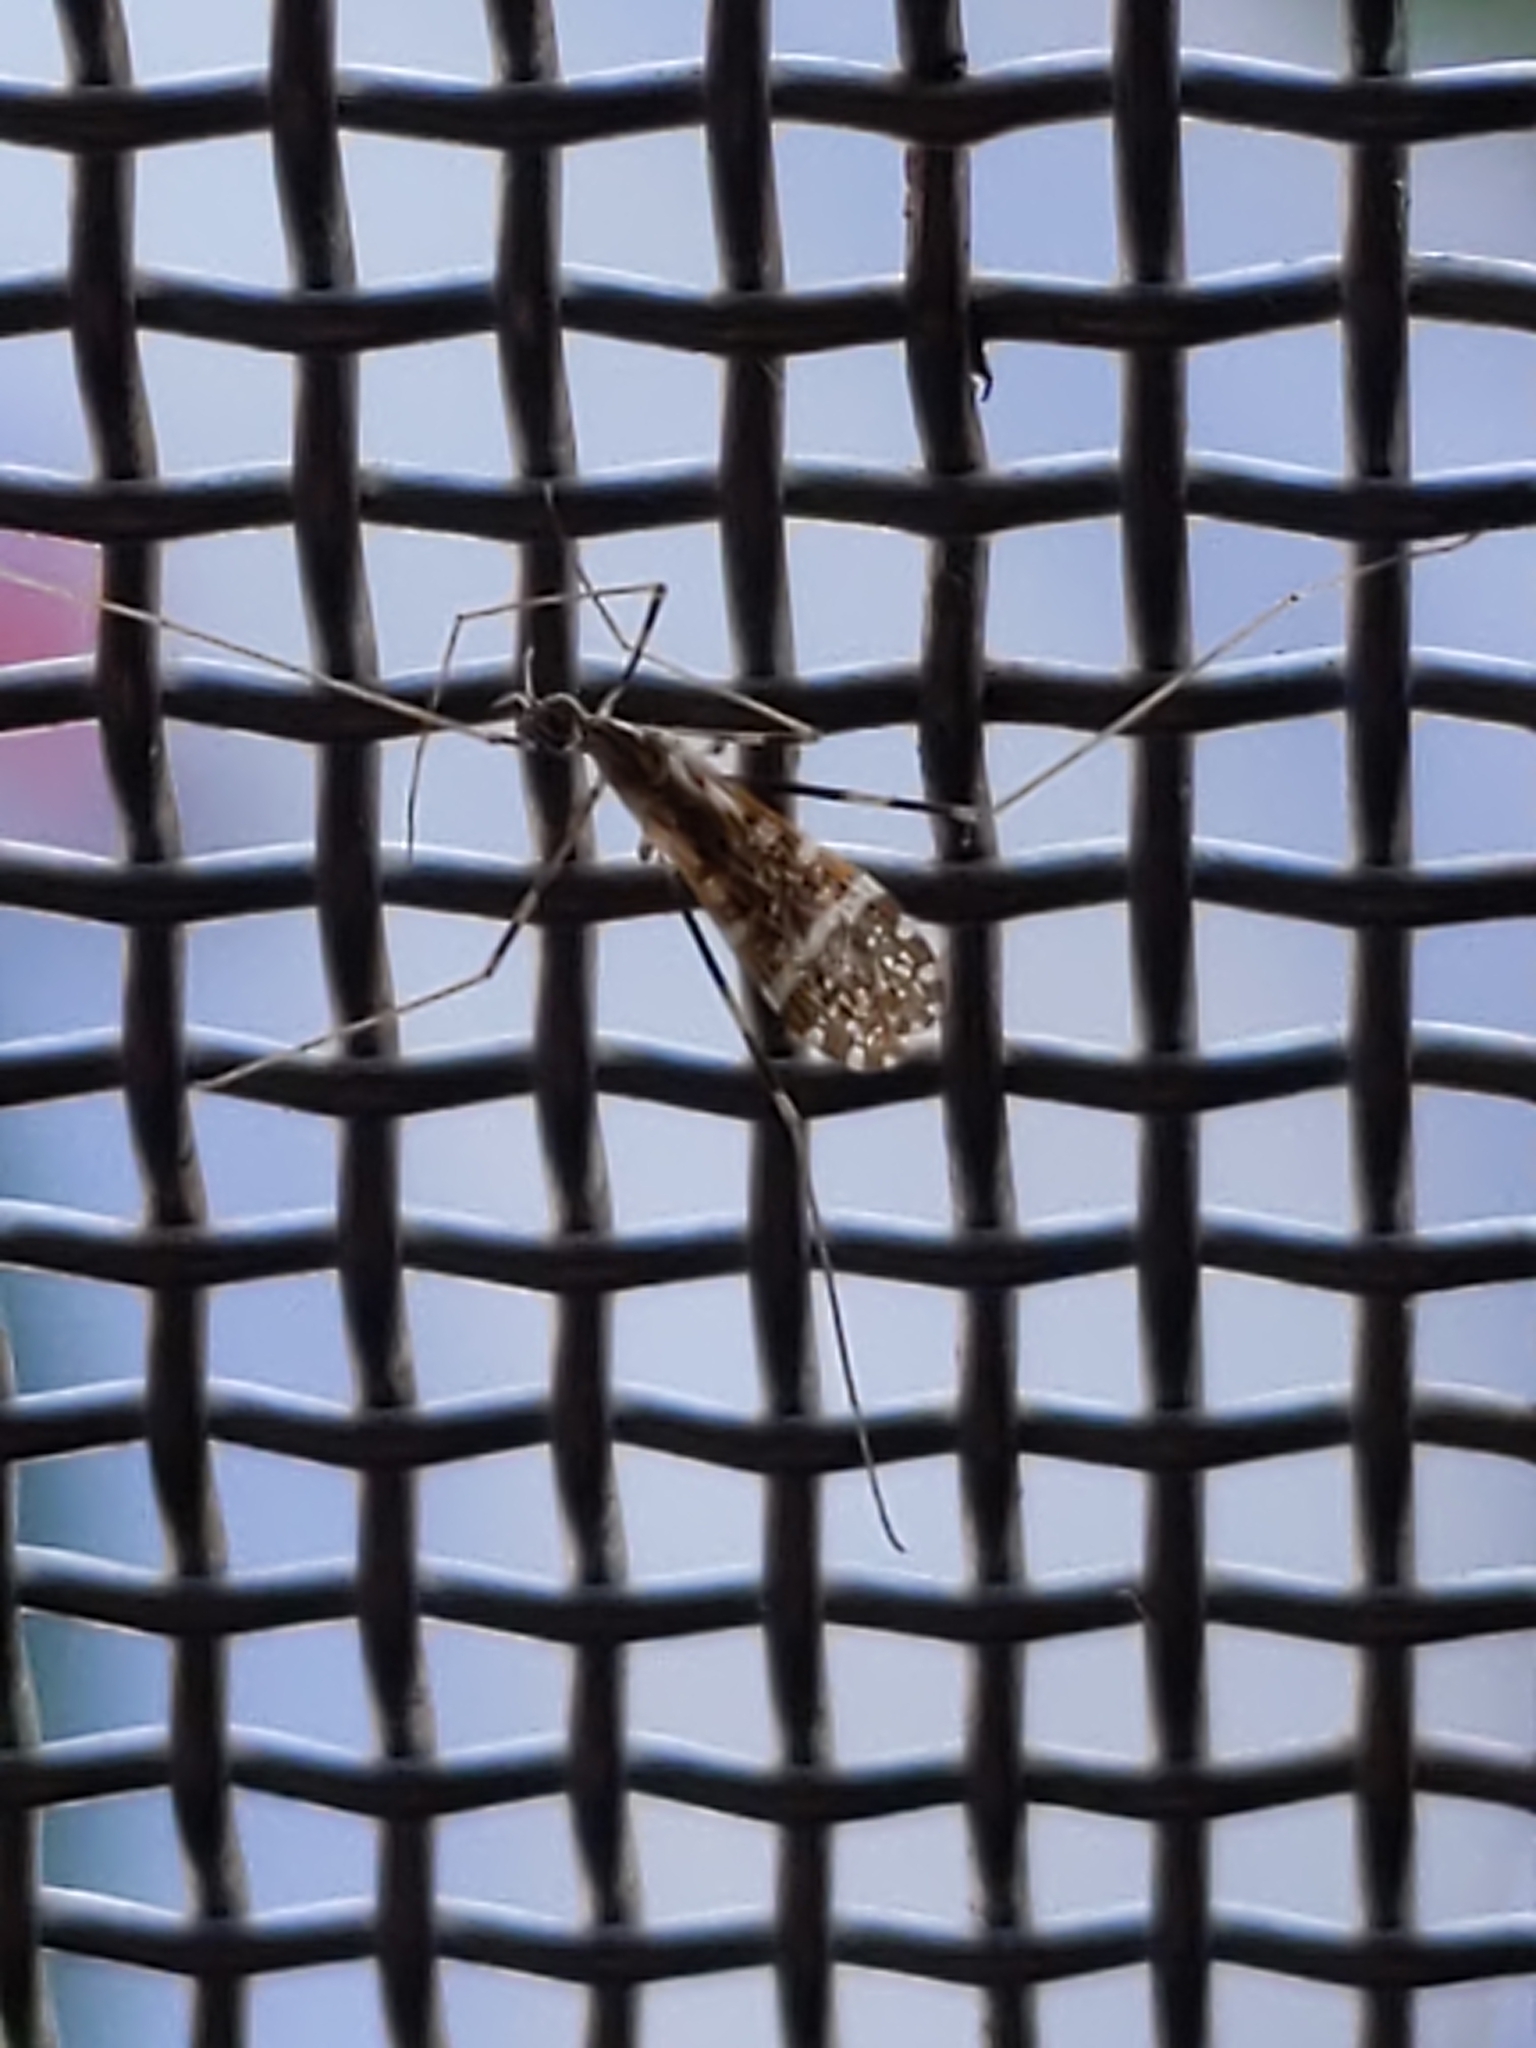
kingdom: Animalia
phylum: Arthropoda
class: Insecta
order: Diptera
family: Limoniidae
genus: Erioptera
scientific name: Erioptera caliptera
